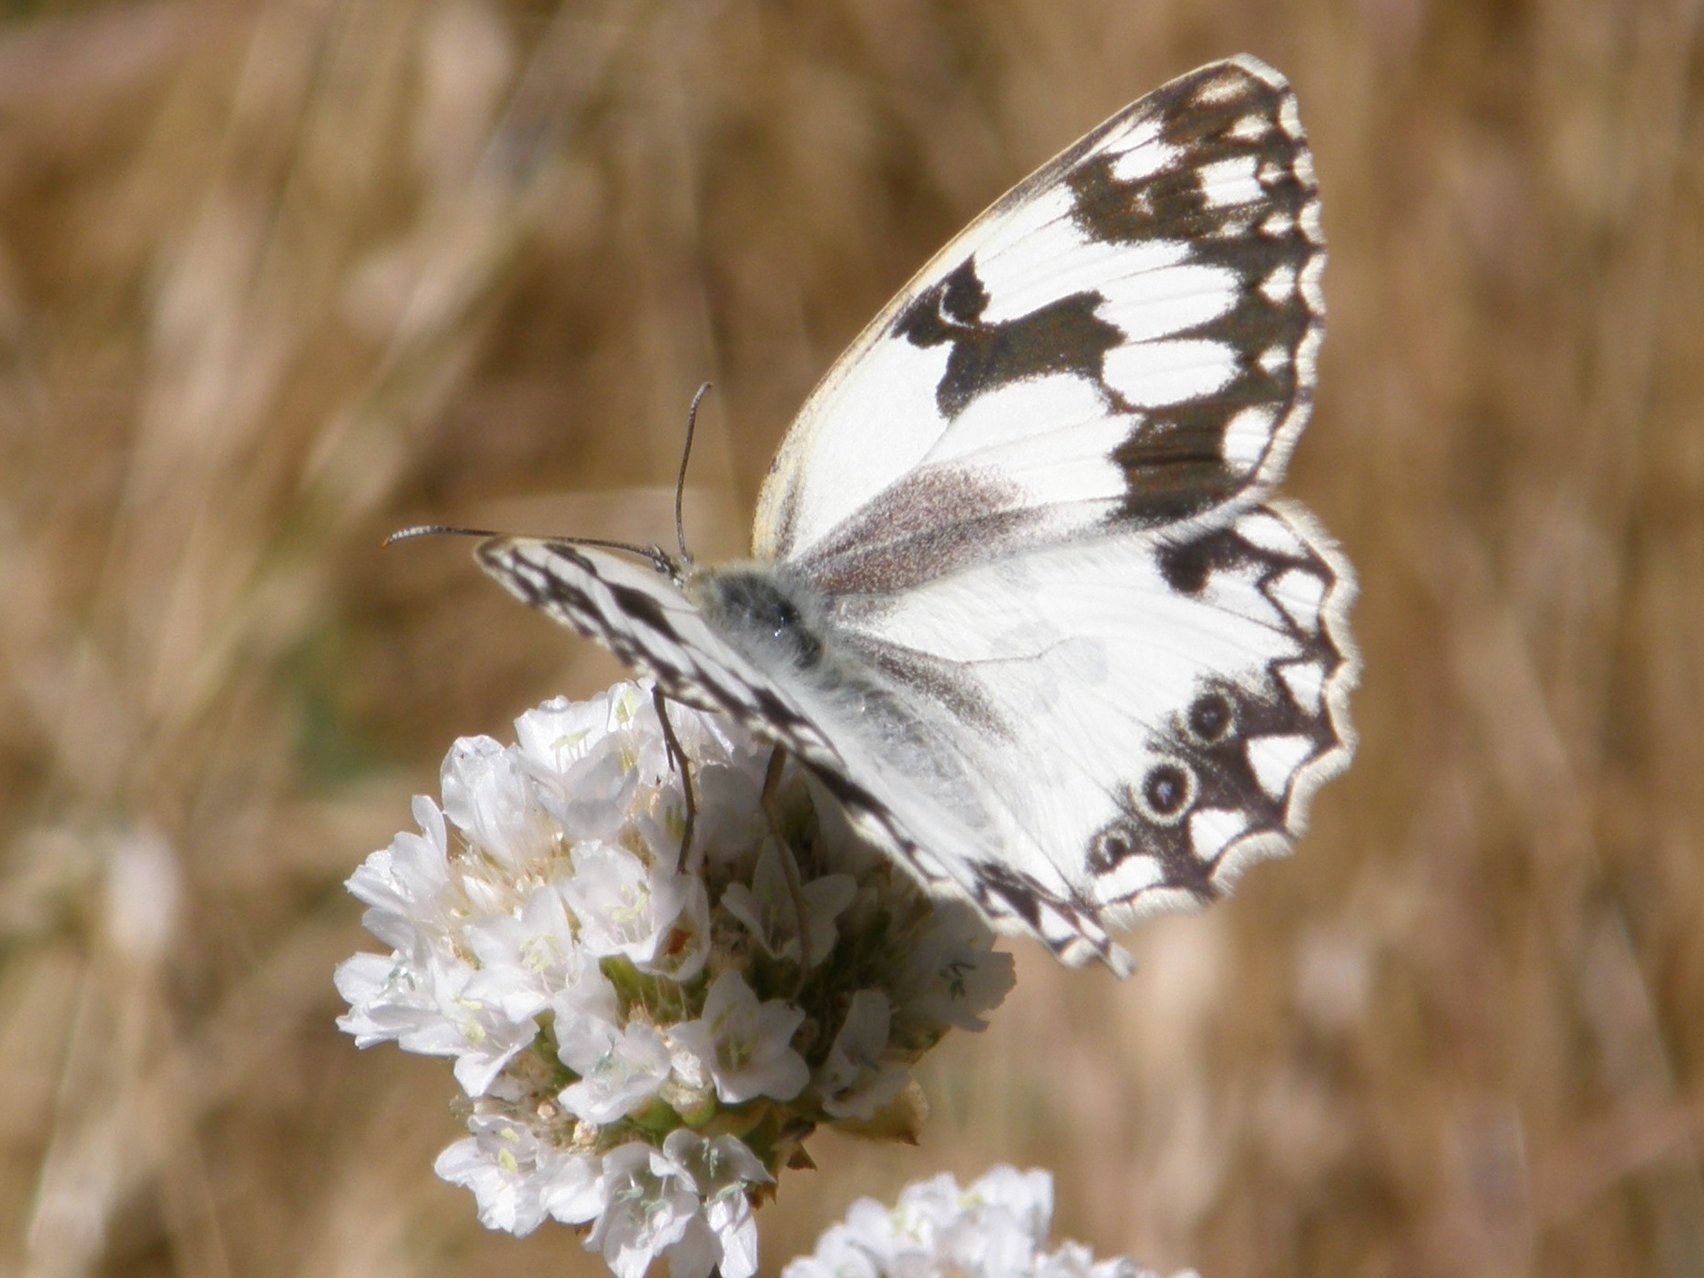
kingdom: Animalia
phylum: Arthropoda
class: Insecta
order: Lepidoptera
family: Nymphalidae
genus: Melanargia
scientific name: Melanargia lachesis
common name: Iberian marbled white
